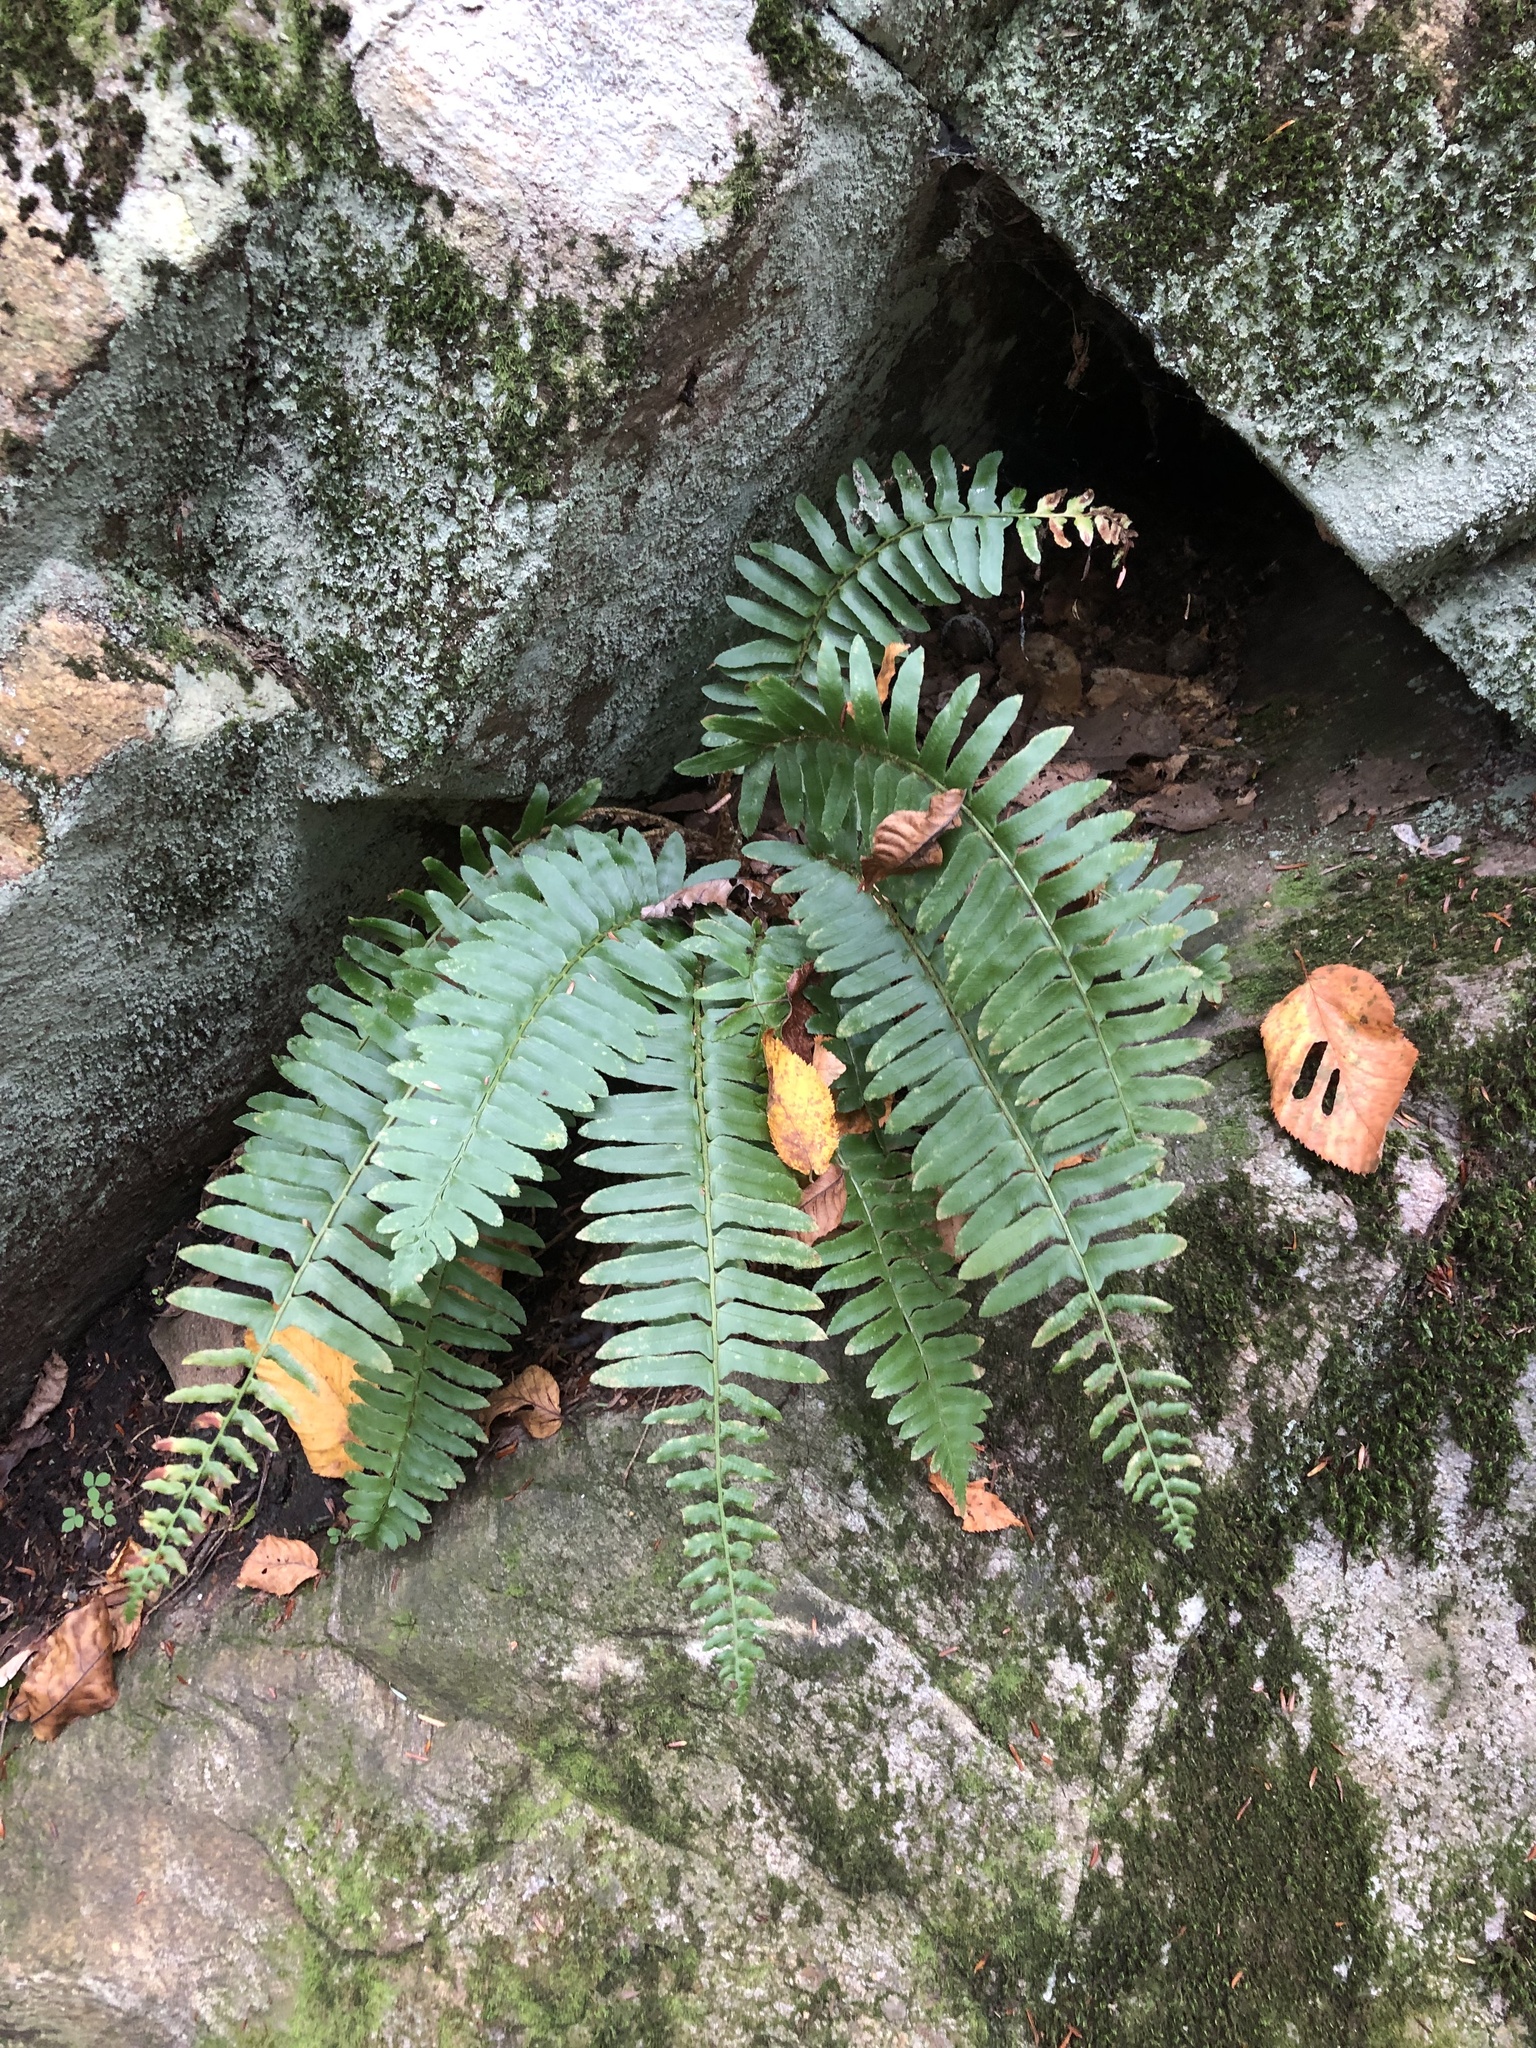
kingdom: Plantae
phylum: Tracheophyta
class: Polypodiopsida
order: Polypodiales
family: Dryopteridaceae
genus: Polystichum
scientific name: Polystichum acrostichoides
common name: Christmas fern
